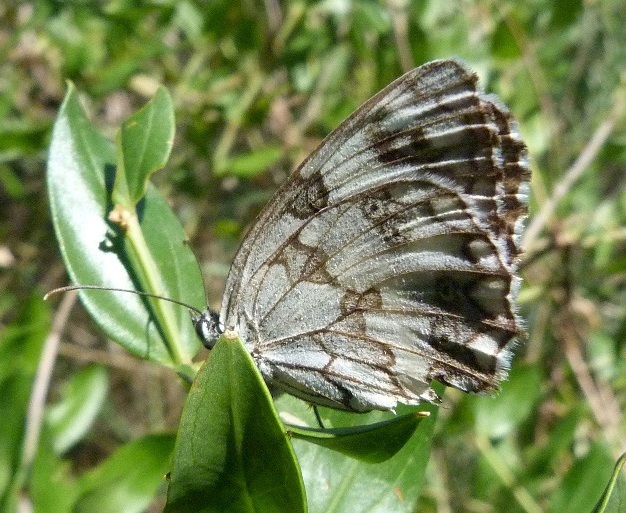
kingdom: Animalia
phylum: Arthropoda
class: Insecta
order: Lepidoptera
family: Nymphalidae
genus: Melanargia
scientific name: Melanargia lachesis
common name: Iberian marbled white
